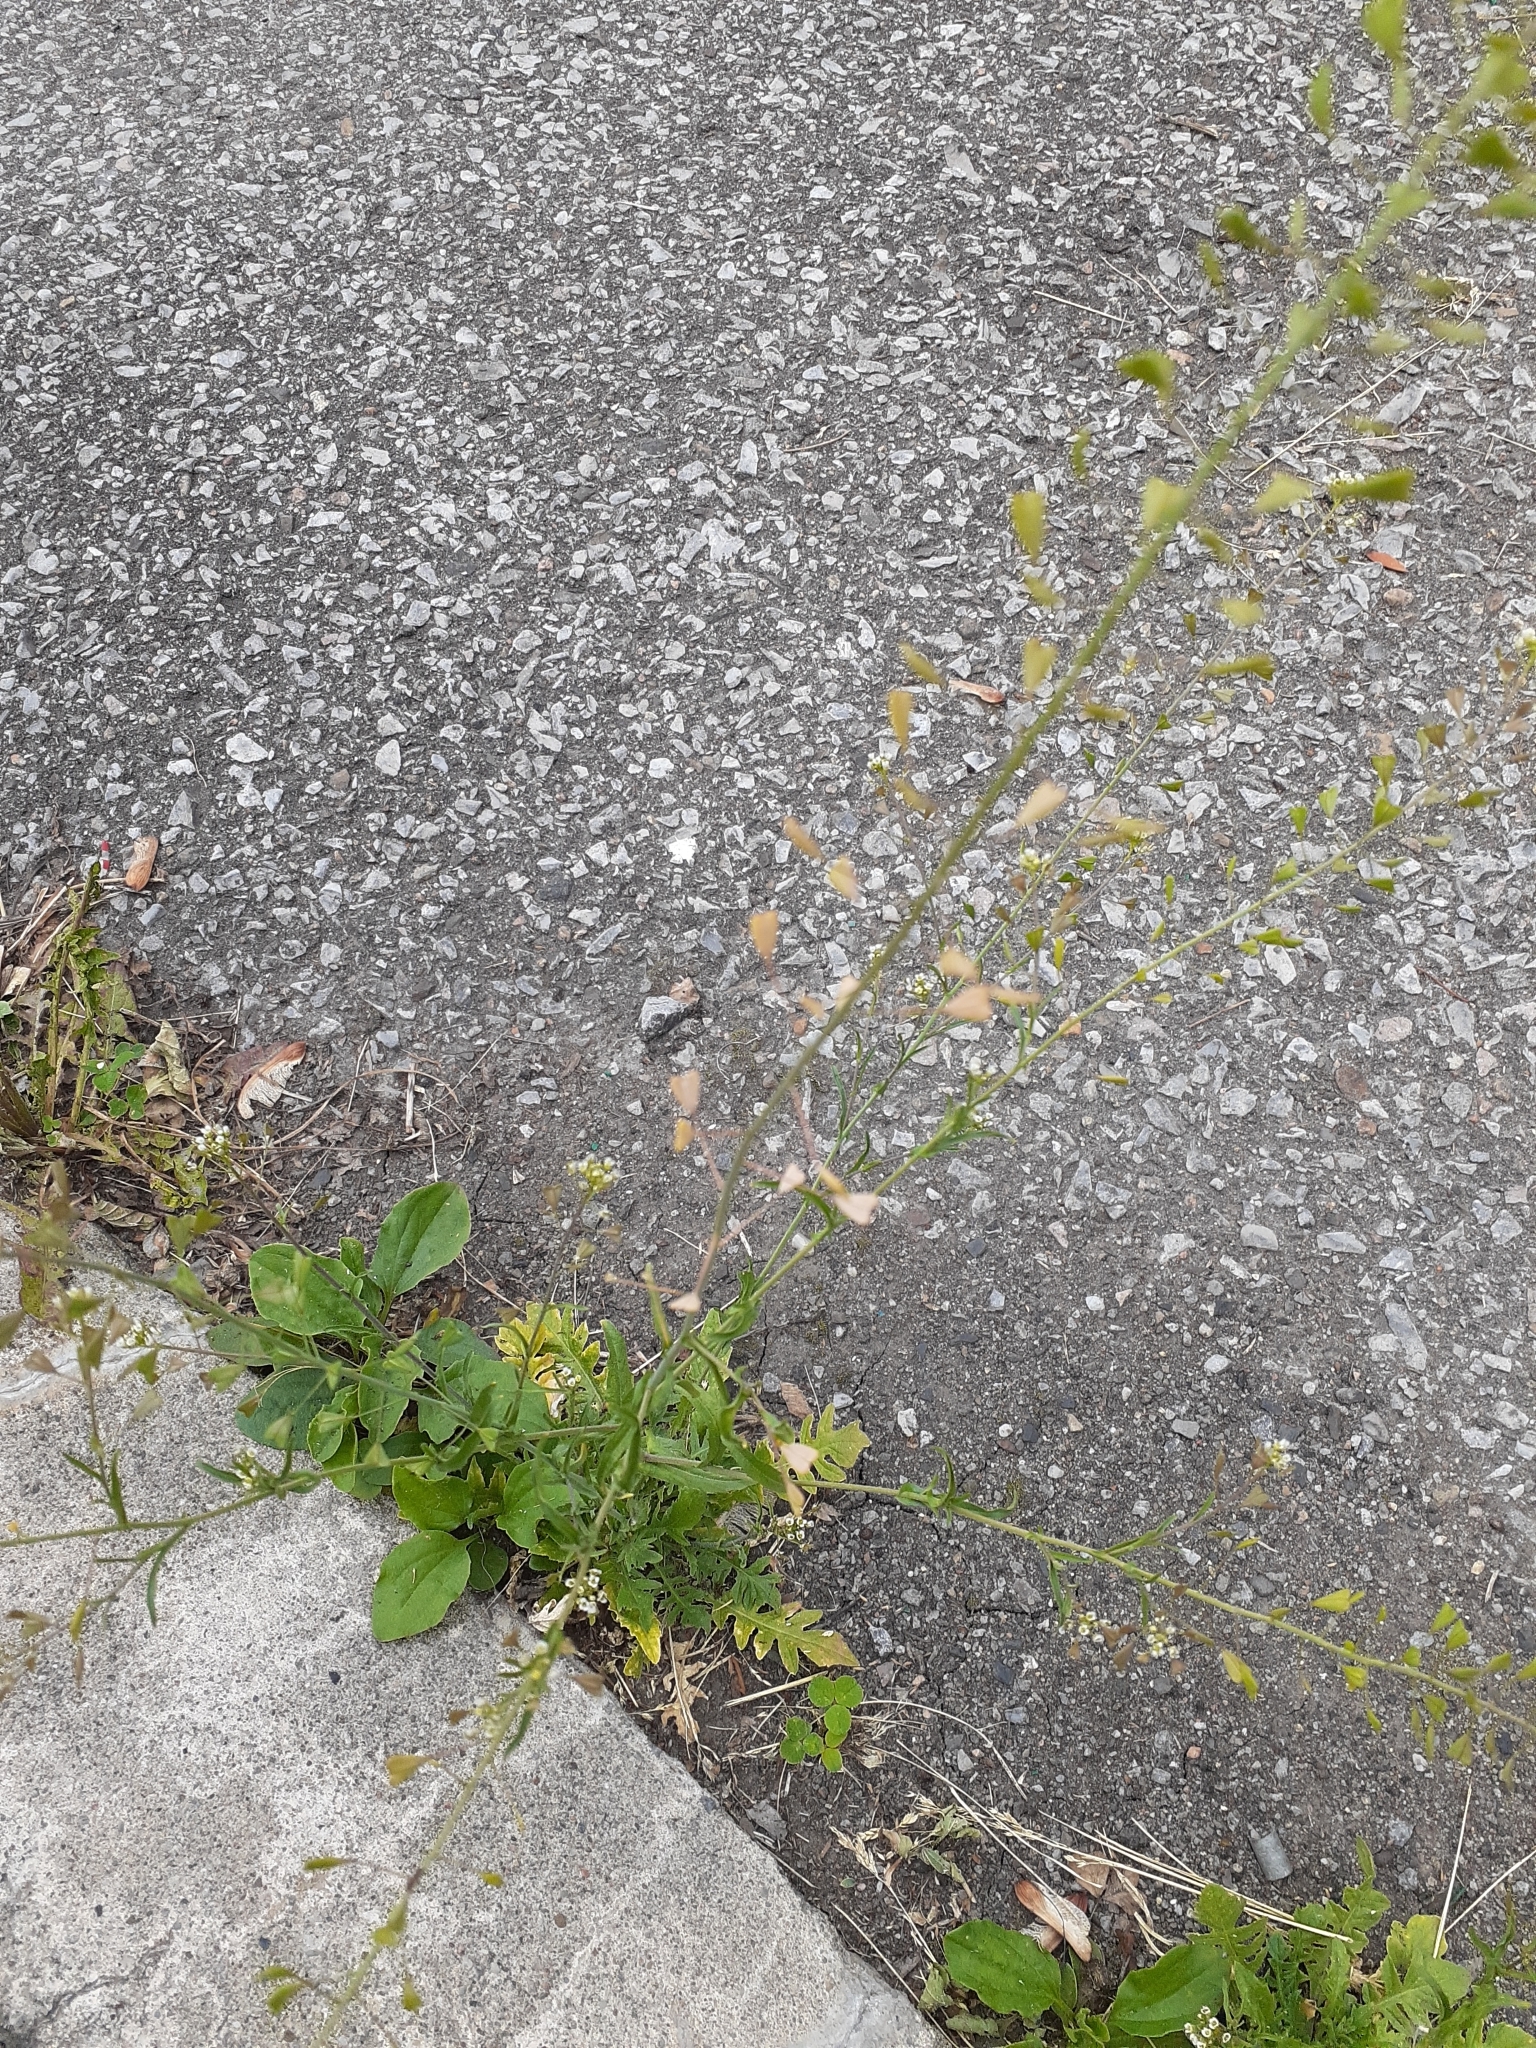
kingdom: Plantae
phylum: Tracheophyta
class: Magnoliopsida
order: Brassicales
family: Brassicaceae
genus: Capsella
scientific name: Capsella bursa-pastoris
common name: Shepherd's purse
